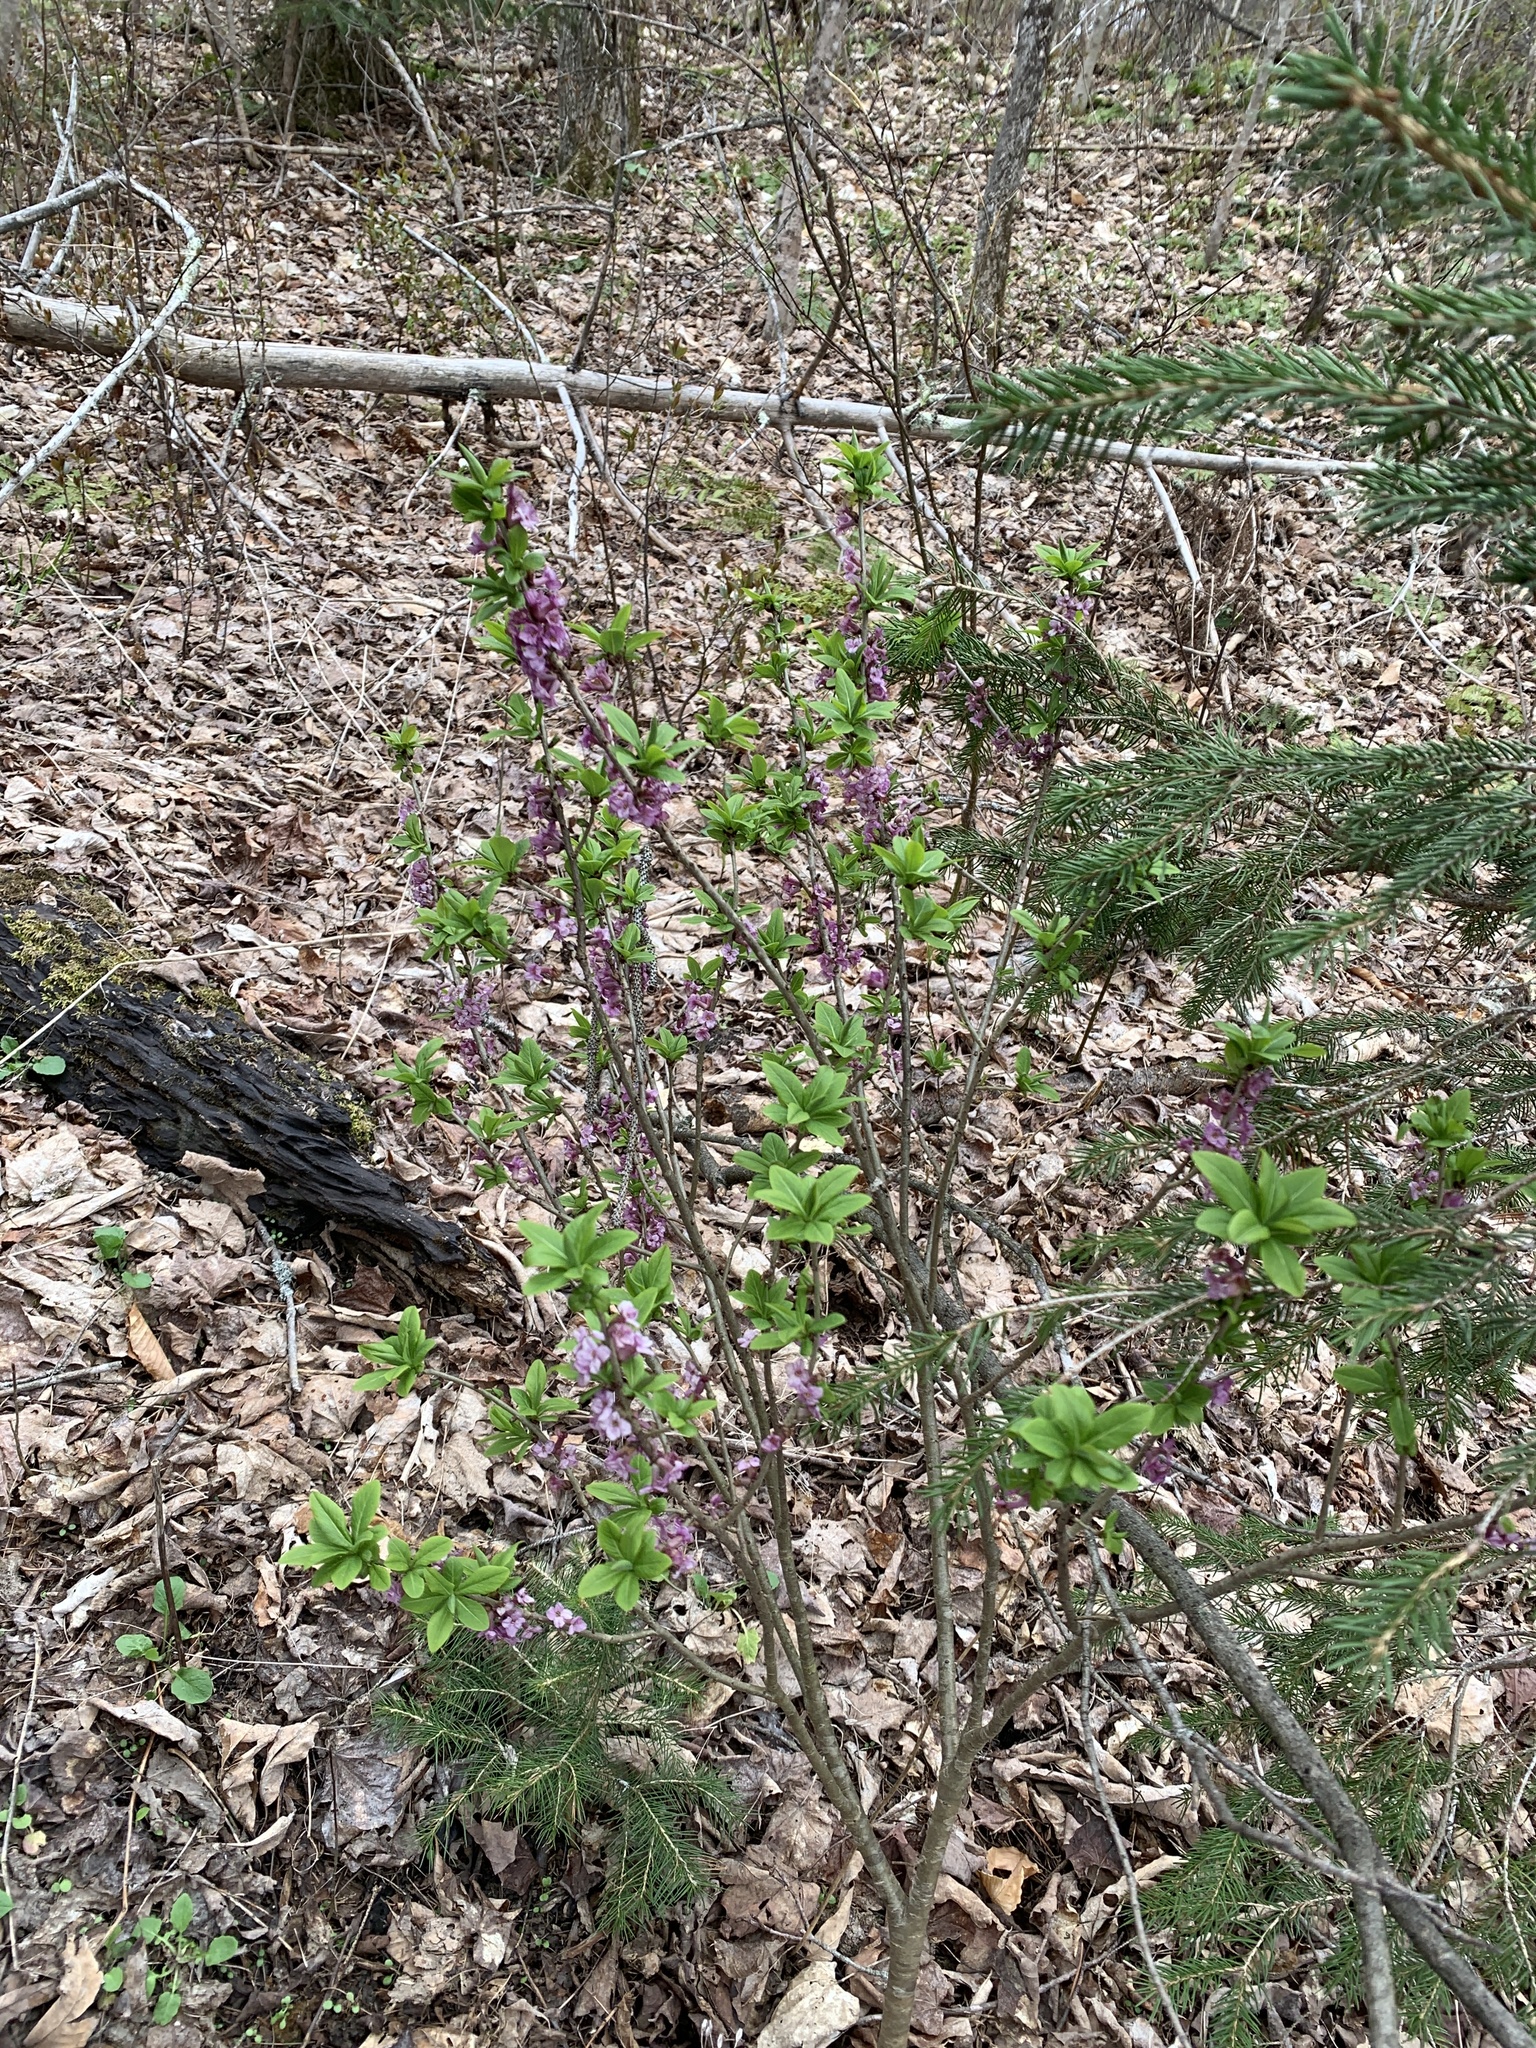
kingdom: Plantae
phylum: Tracheophyta
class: Magnoliopsida
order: Malvales
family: Thymelaeaceae
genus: Daphne
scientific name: Daphne mezereum
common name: Mezereon
